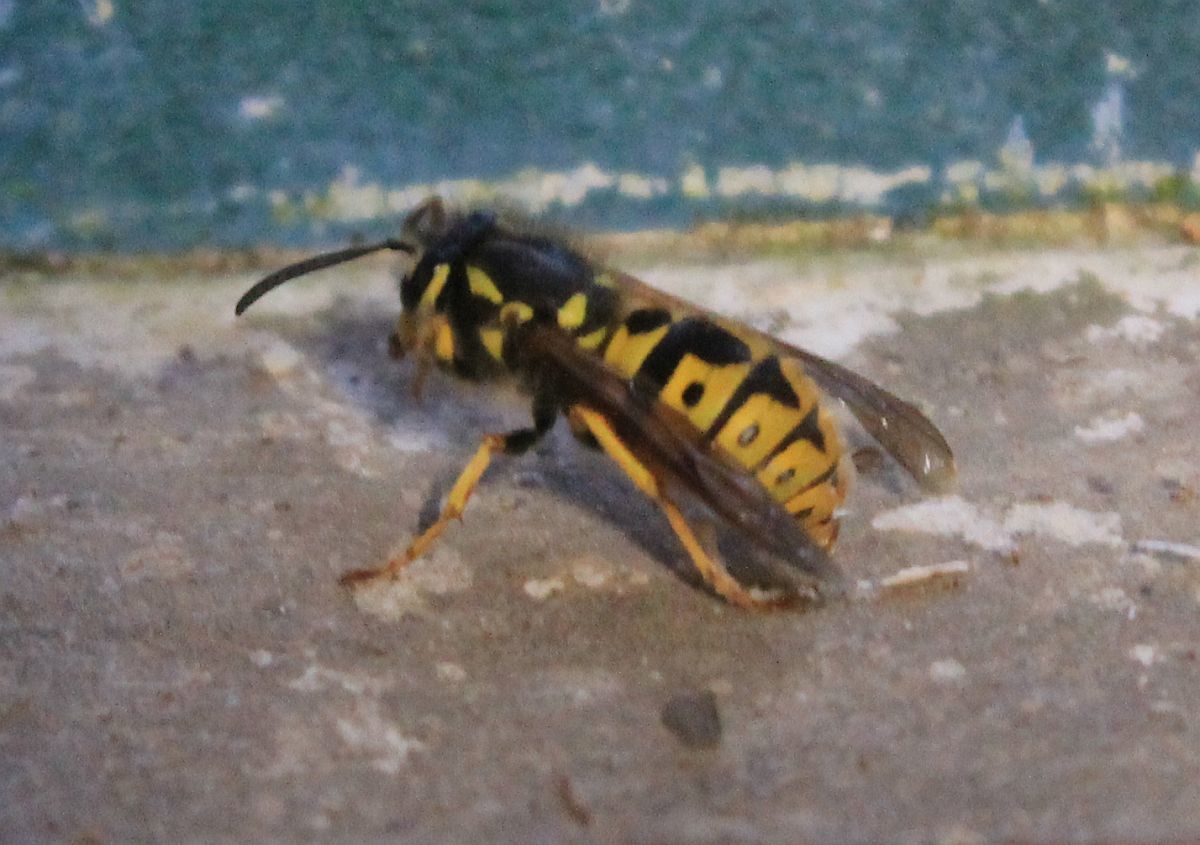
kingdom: Animalia
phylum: Arthropoda
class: Insecta
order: Hymenoptera
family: Vespidae
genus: Vespula
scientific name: Vespula germanica
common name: German wasp
